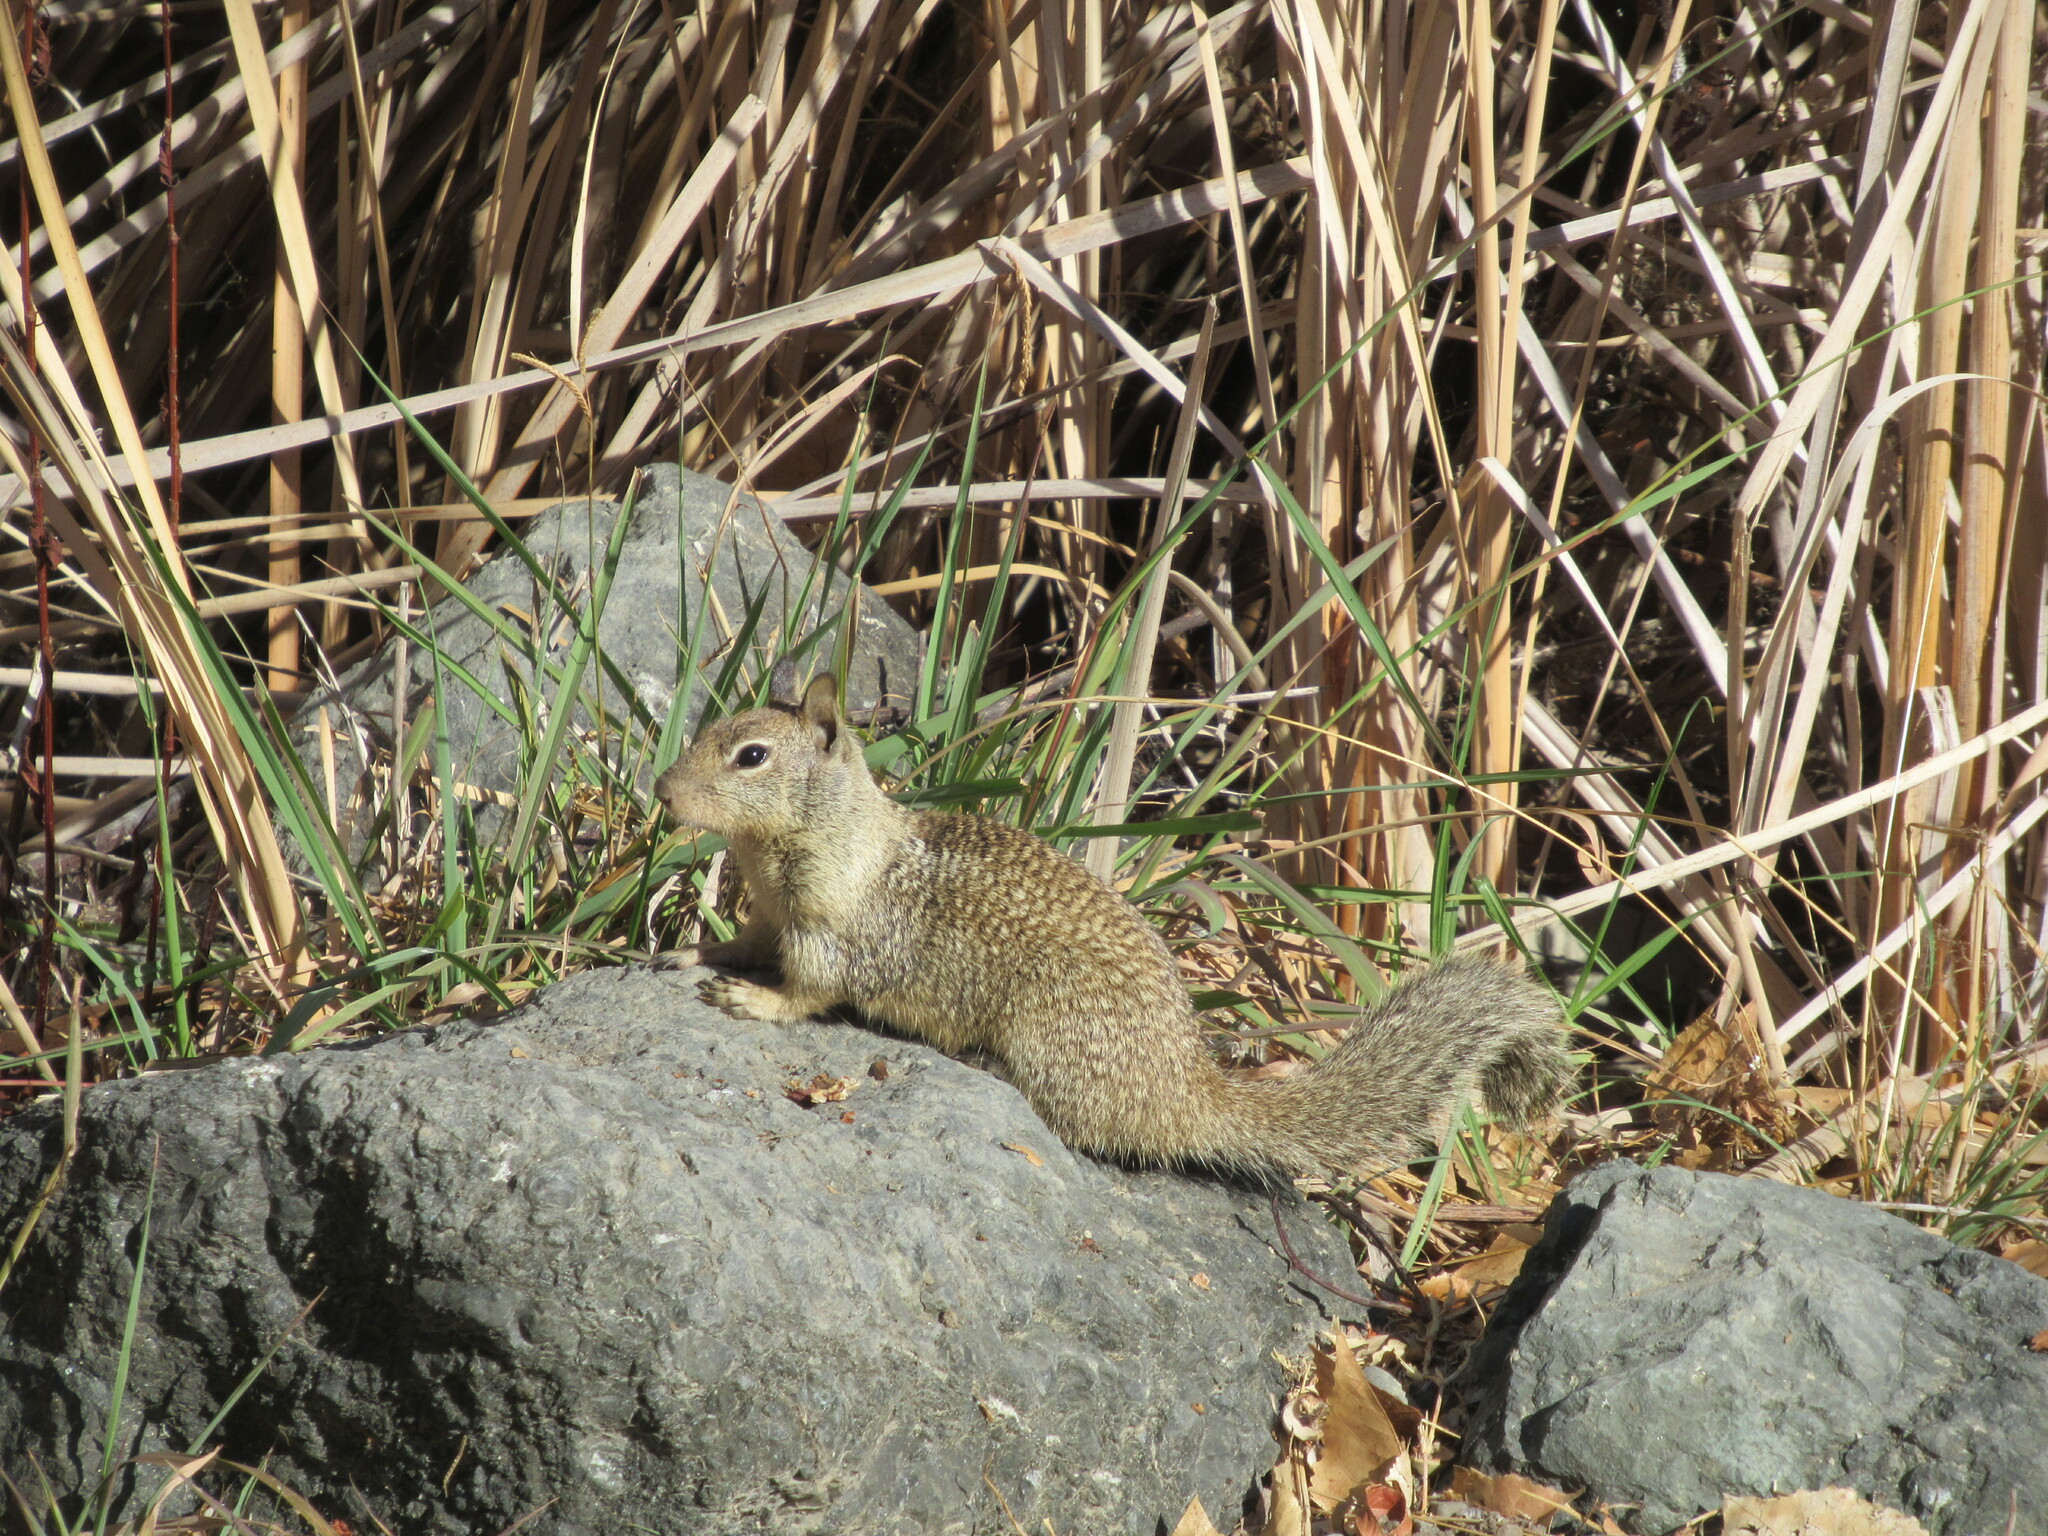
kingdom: Animalia
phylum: Chordata
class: Mammalia
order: Rodentia
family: Sciuridae
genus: Otospermophilus
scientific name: Otospermophilus beecheyi
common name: California ground squirrel
